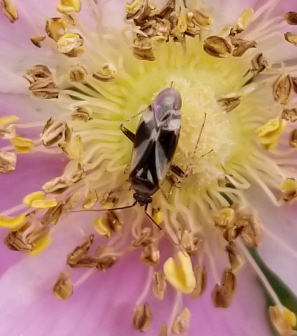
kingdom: Animalia
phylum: Arthropoda
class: Insecta
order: Hemiptera
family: Miridae
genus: Plagiognathus
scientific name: Plagiognathus obscurus
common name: Obscure plant bug
